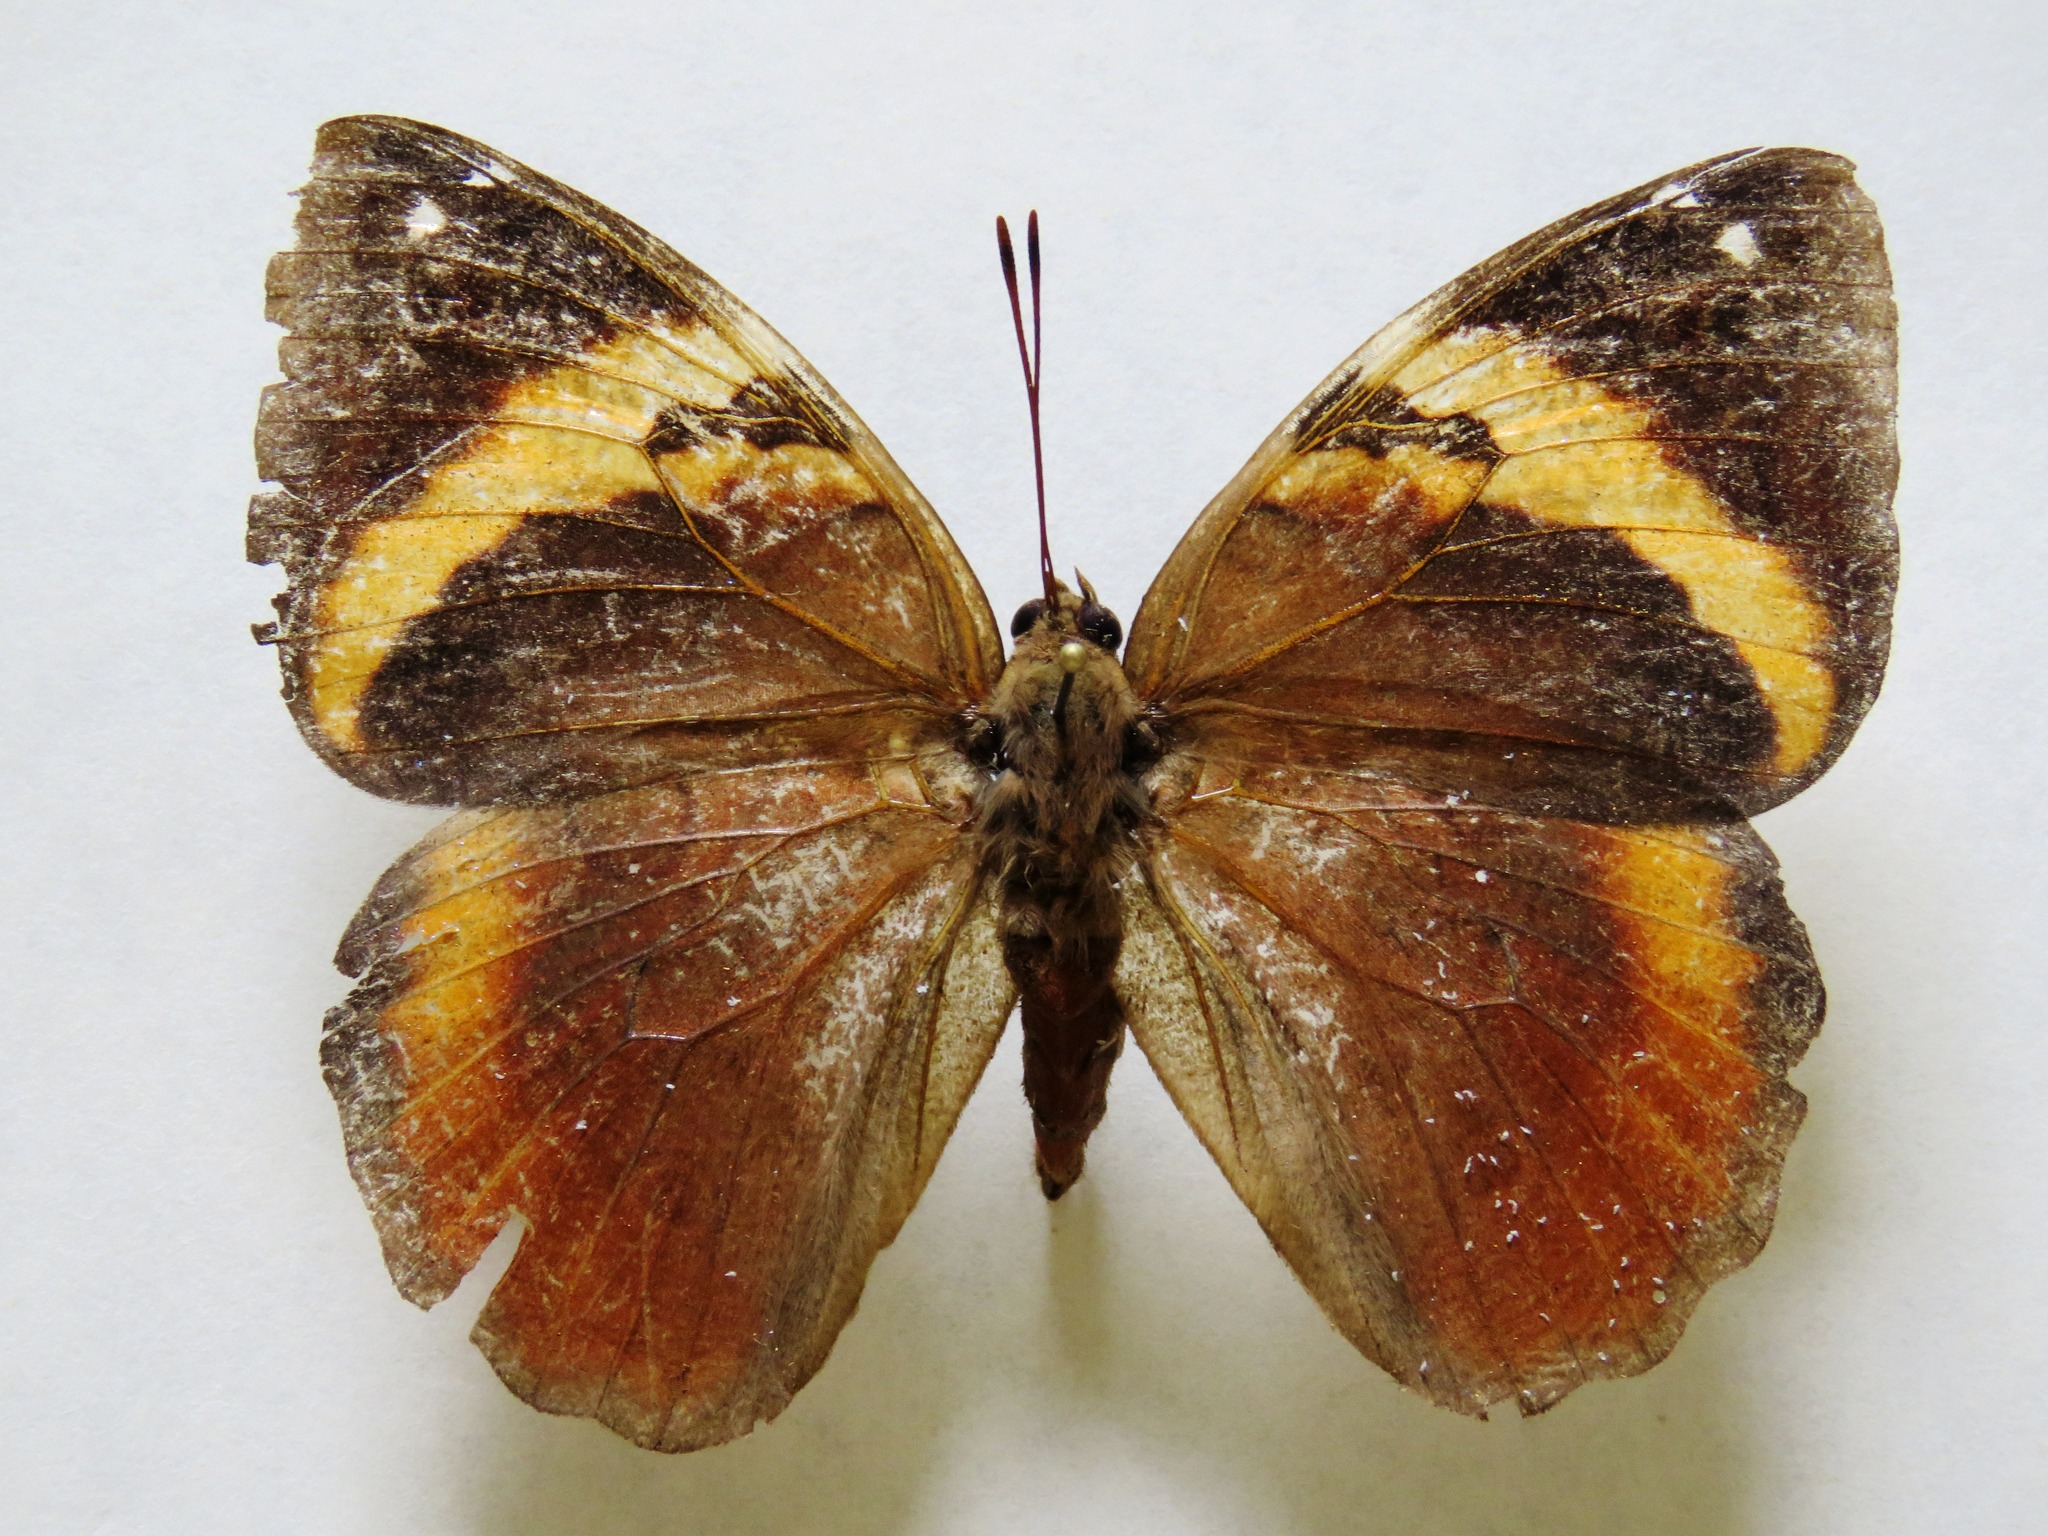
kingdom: Animalia
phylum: Arthropoda
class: Insecta
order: Lepidoptera
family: Nymphalidae
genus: Opsiphanes
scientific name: Opsiphanes cassina
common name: Split-banded owl-butterfly
